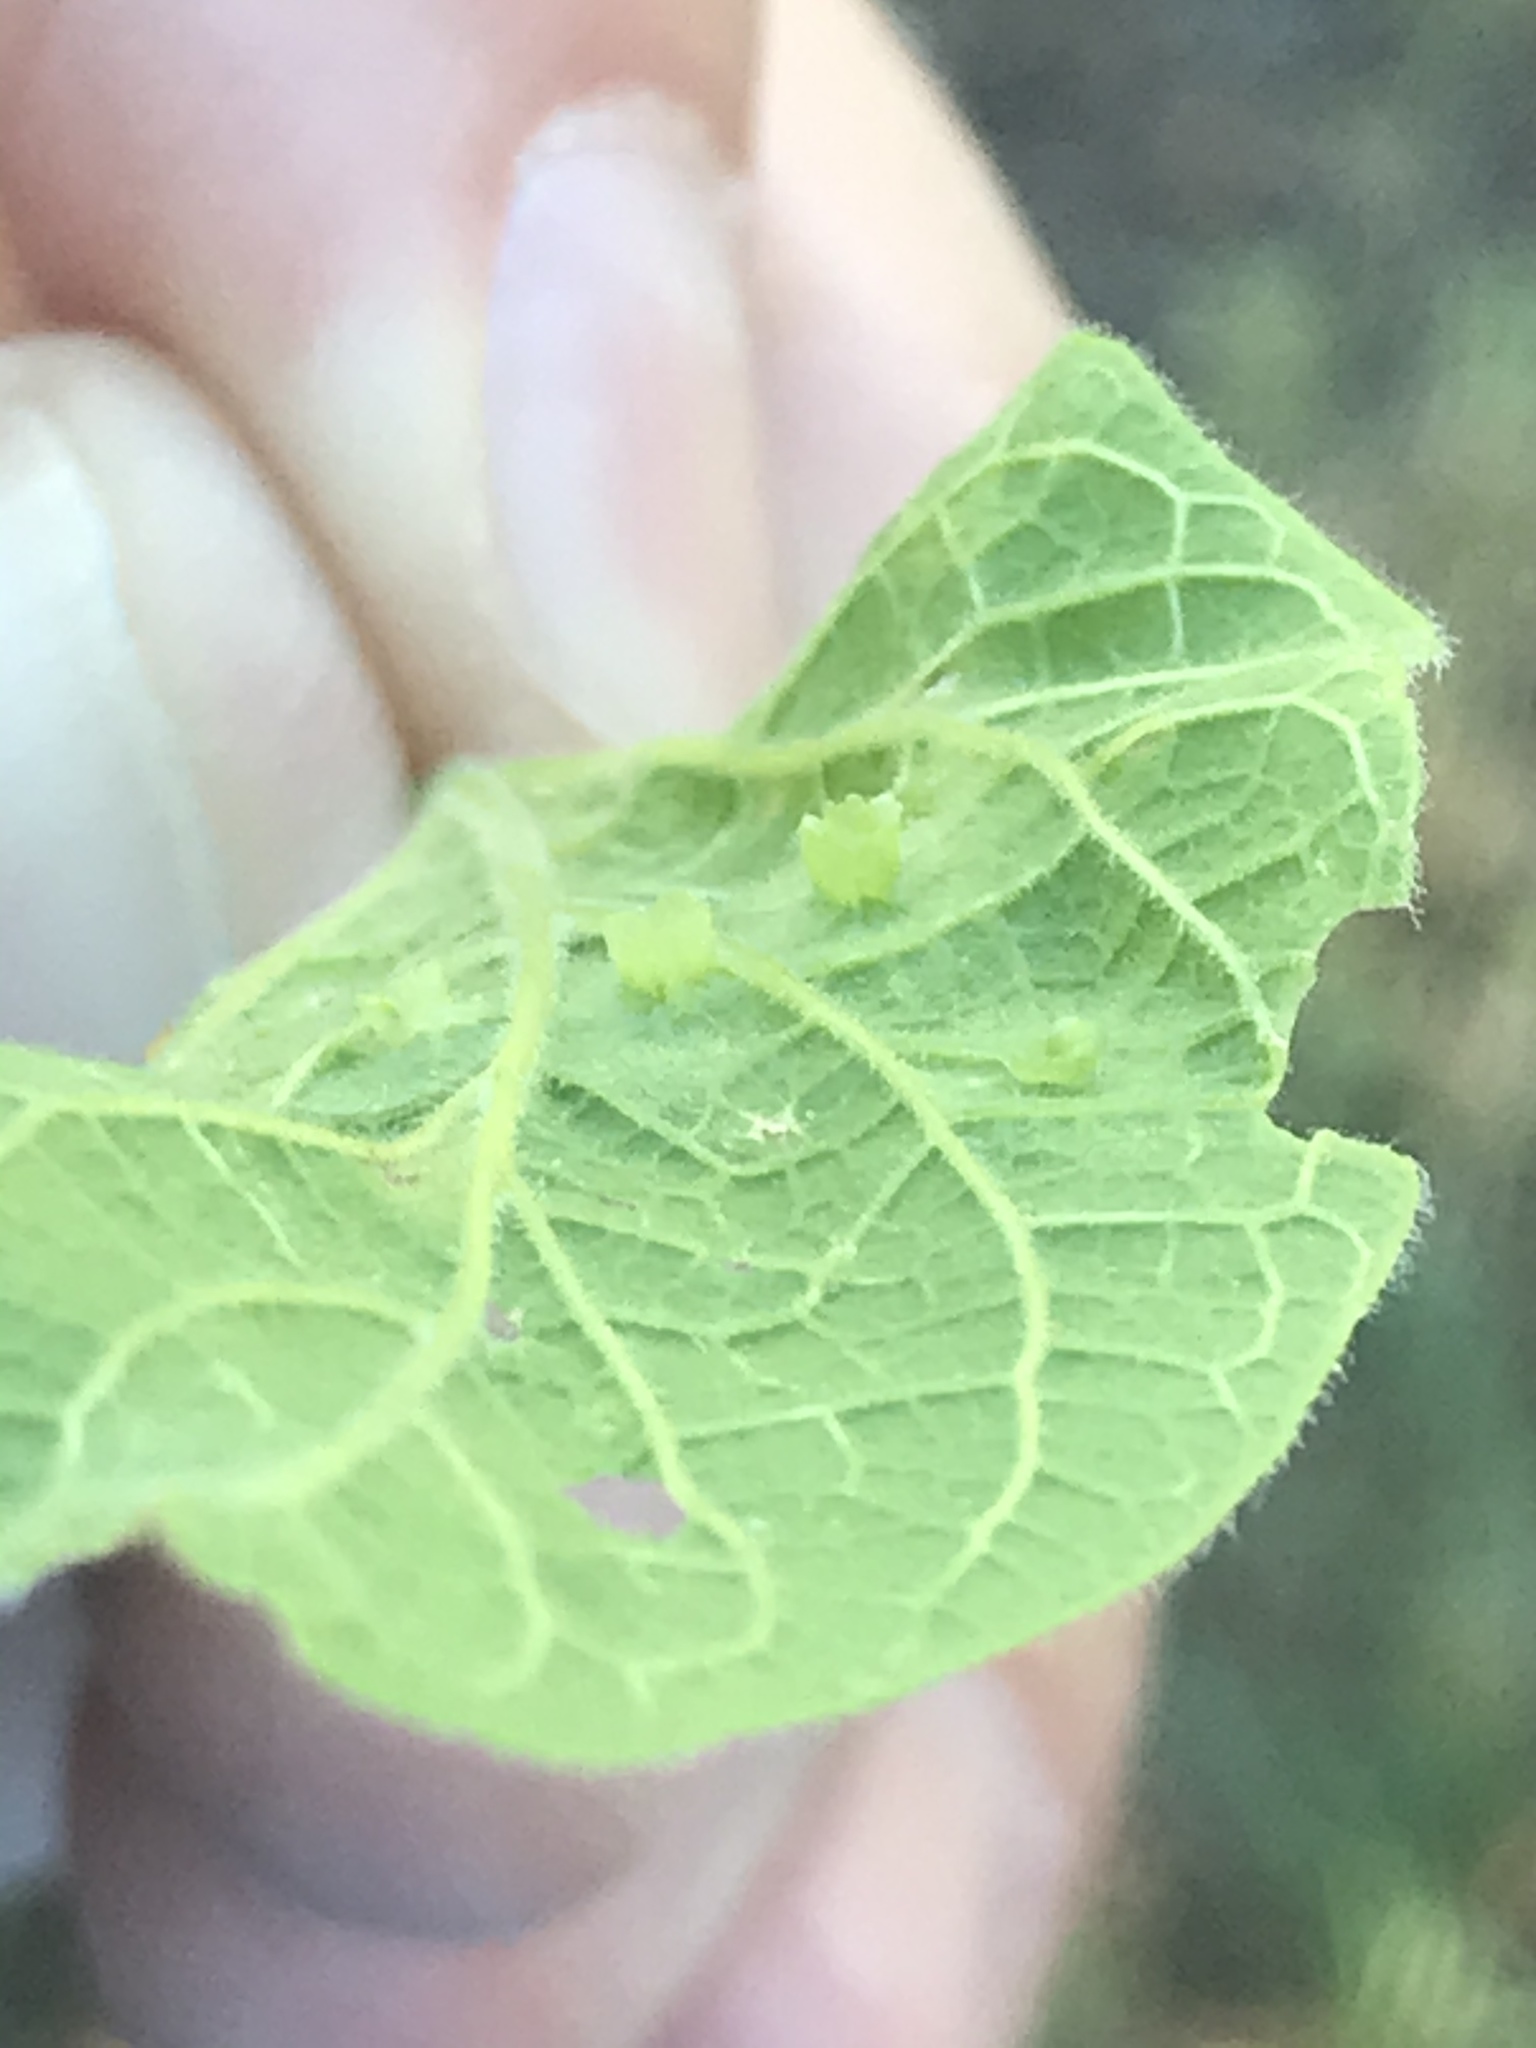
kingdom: Animalia
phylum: Arthropoda
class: Insecta
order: Hemiptera
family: Aphalaridae
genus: Pachypsylla
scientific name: Pachypsylla celtidisasterisca
